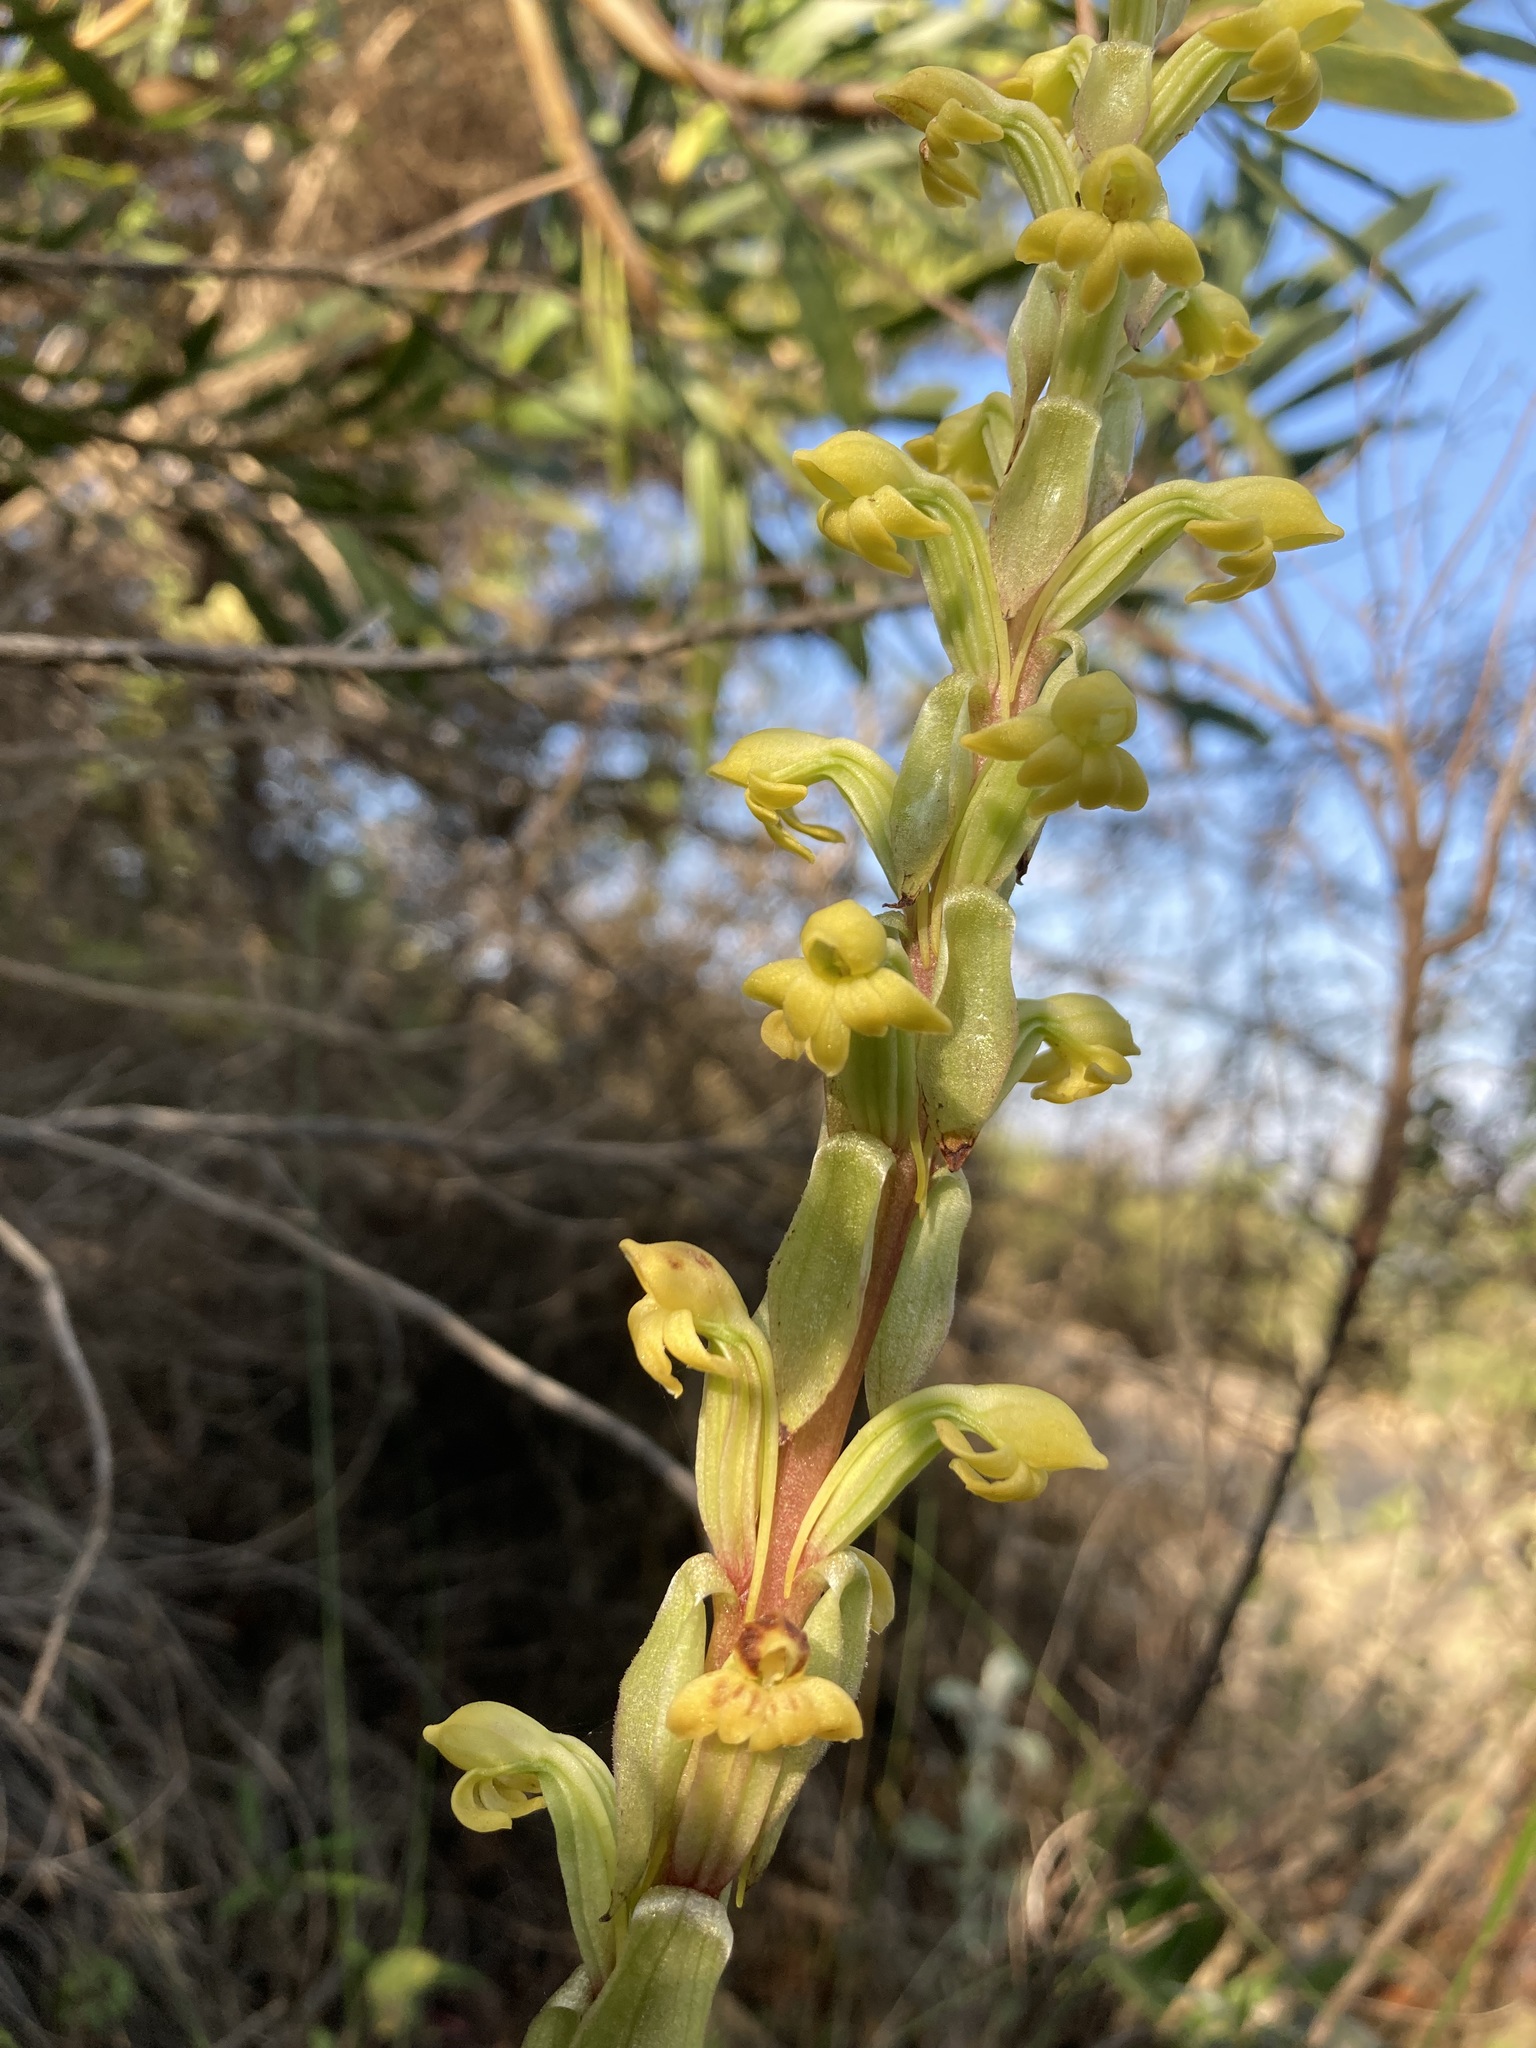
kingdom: Plantae
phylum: Tracheophyta
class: Liliopsida
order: Asparagales
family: Orchidaceae
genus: Satyrium
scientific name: Satyrium bicorne
